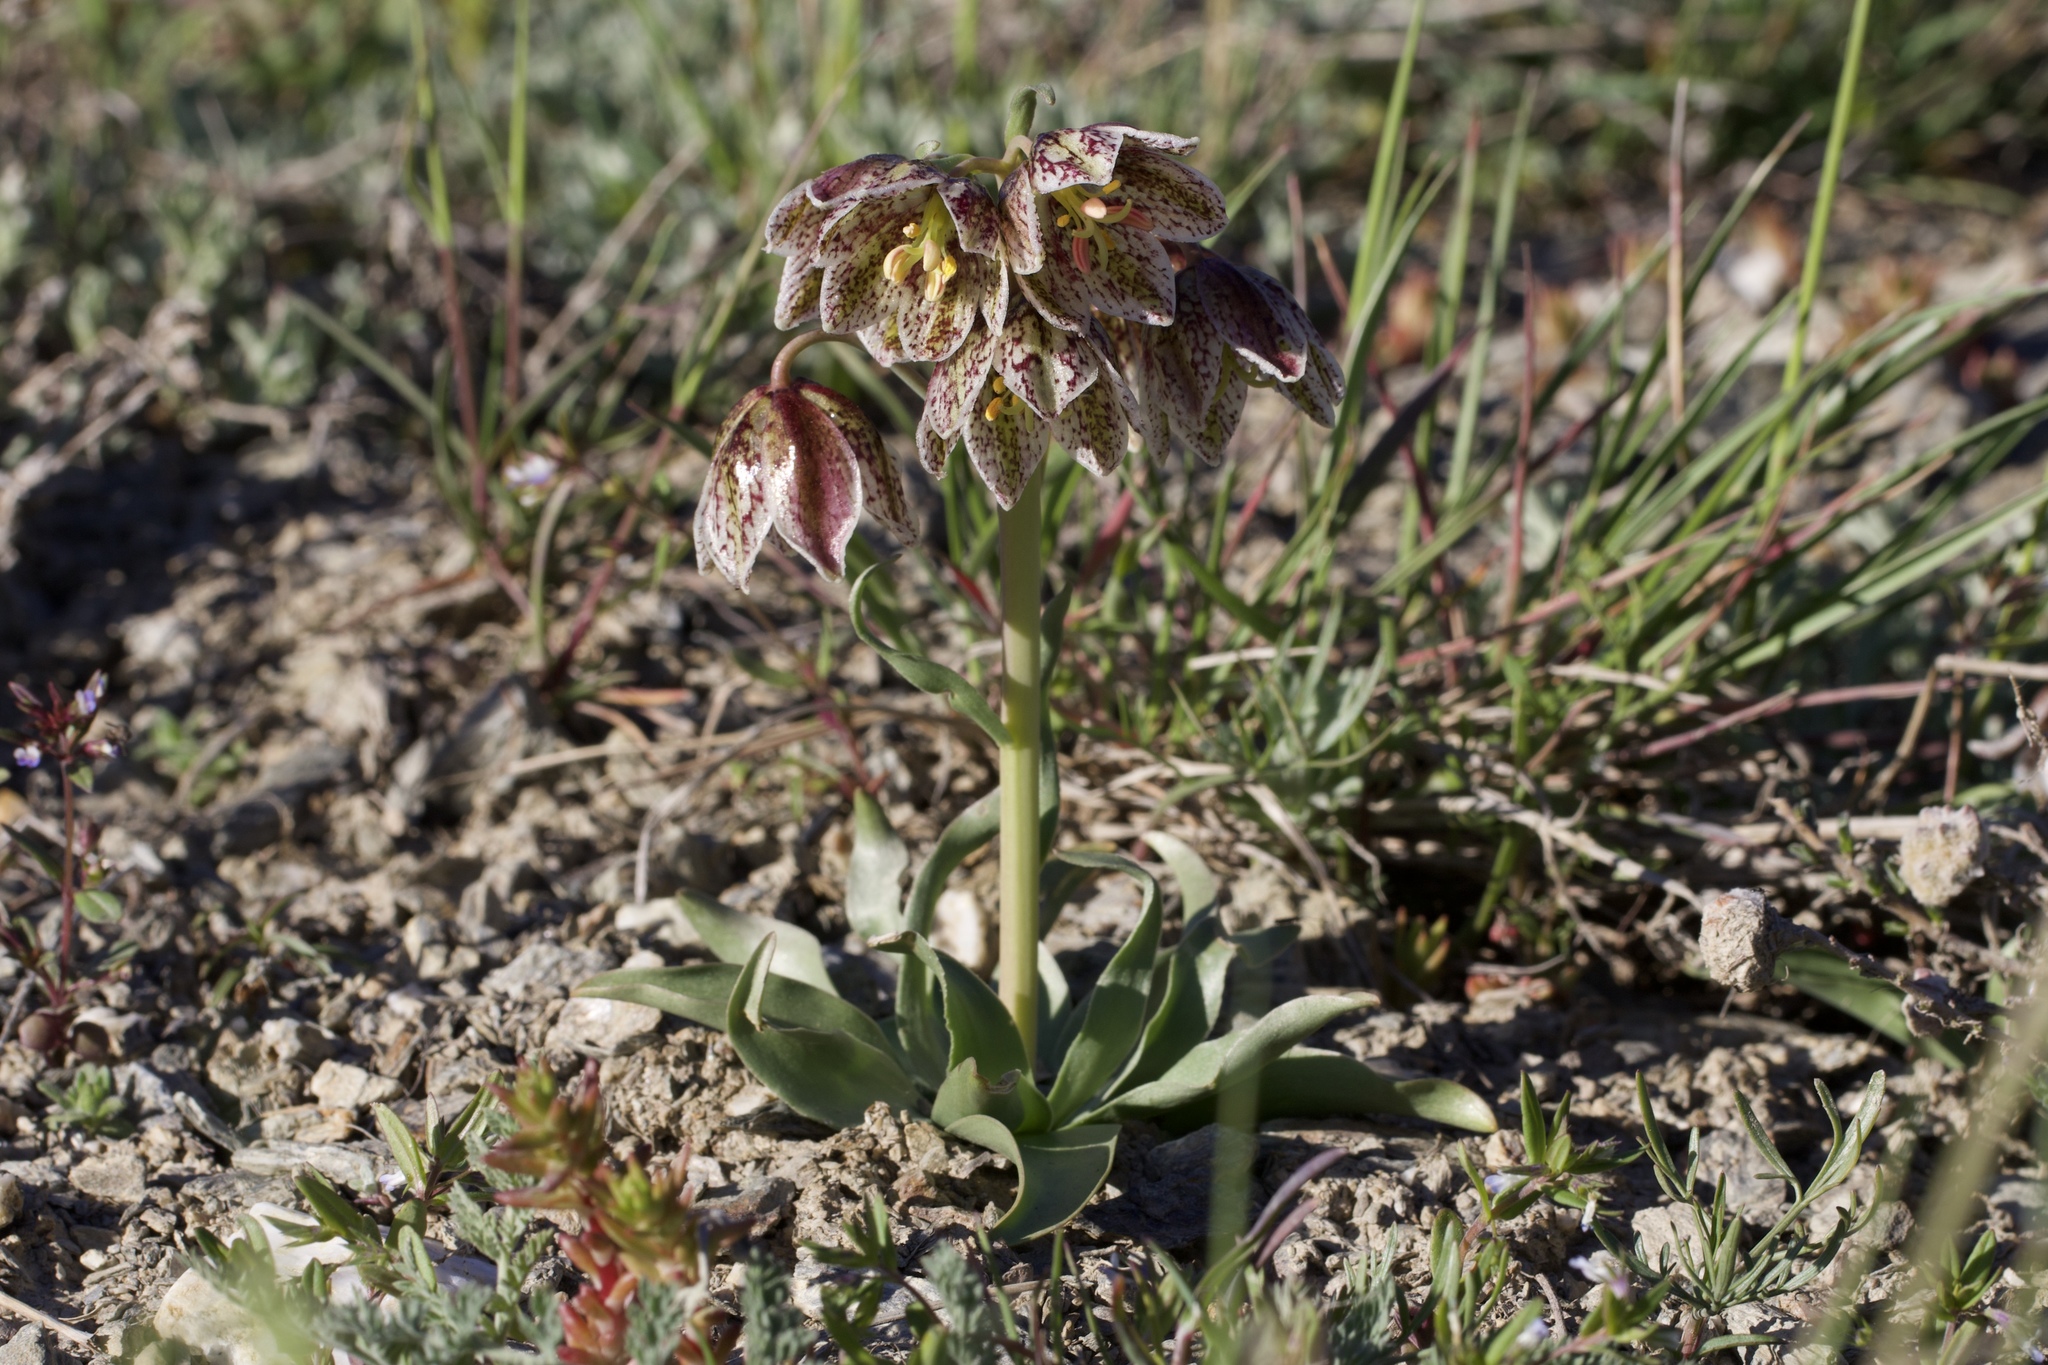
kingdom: Plantae
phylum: Tracheophyta
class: Liliopsida
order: Liliales
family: Liliaceae
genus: Fritillaria
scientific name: Fritillaria purdyi
